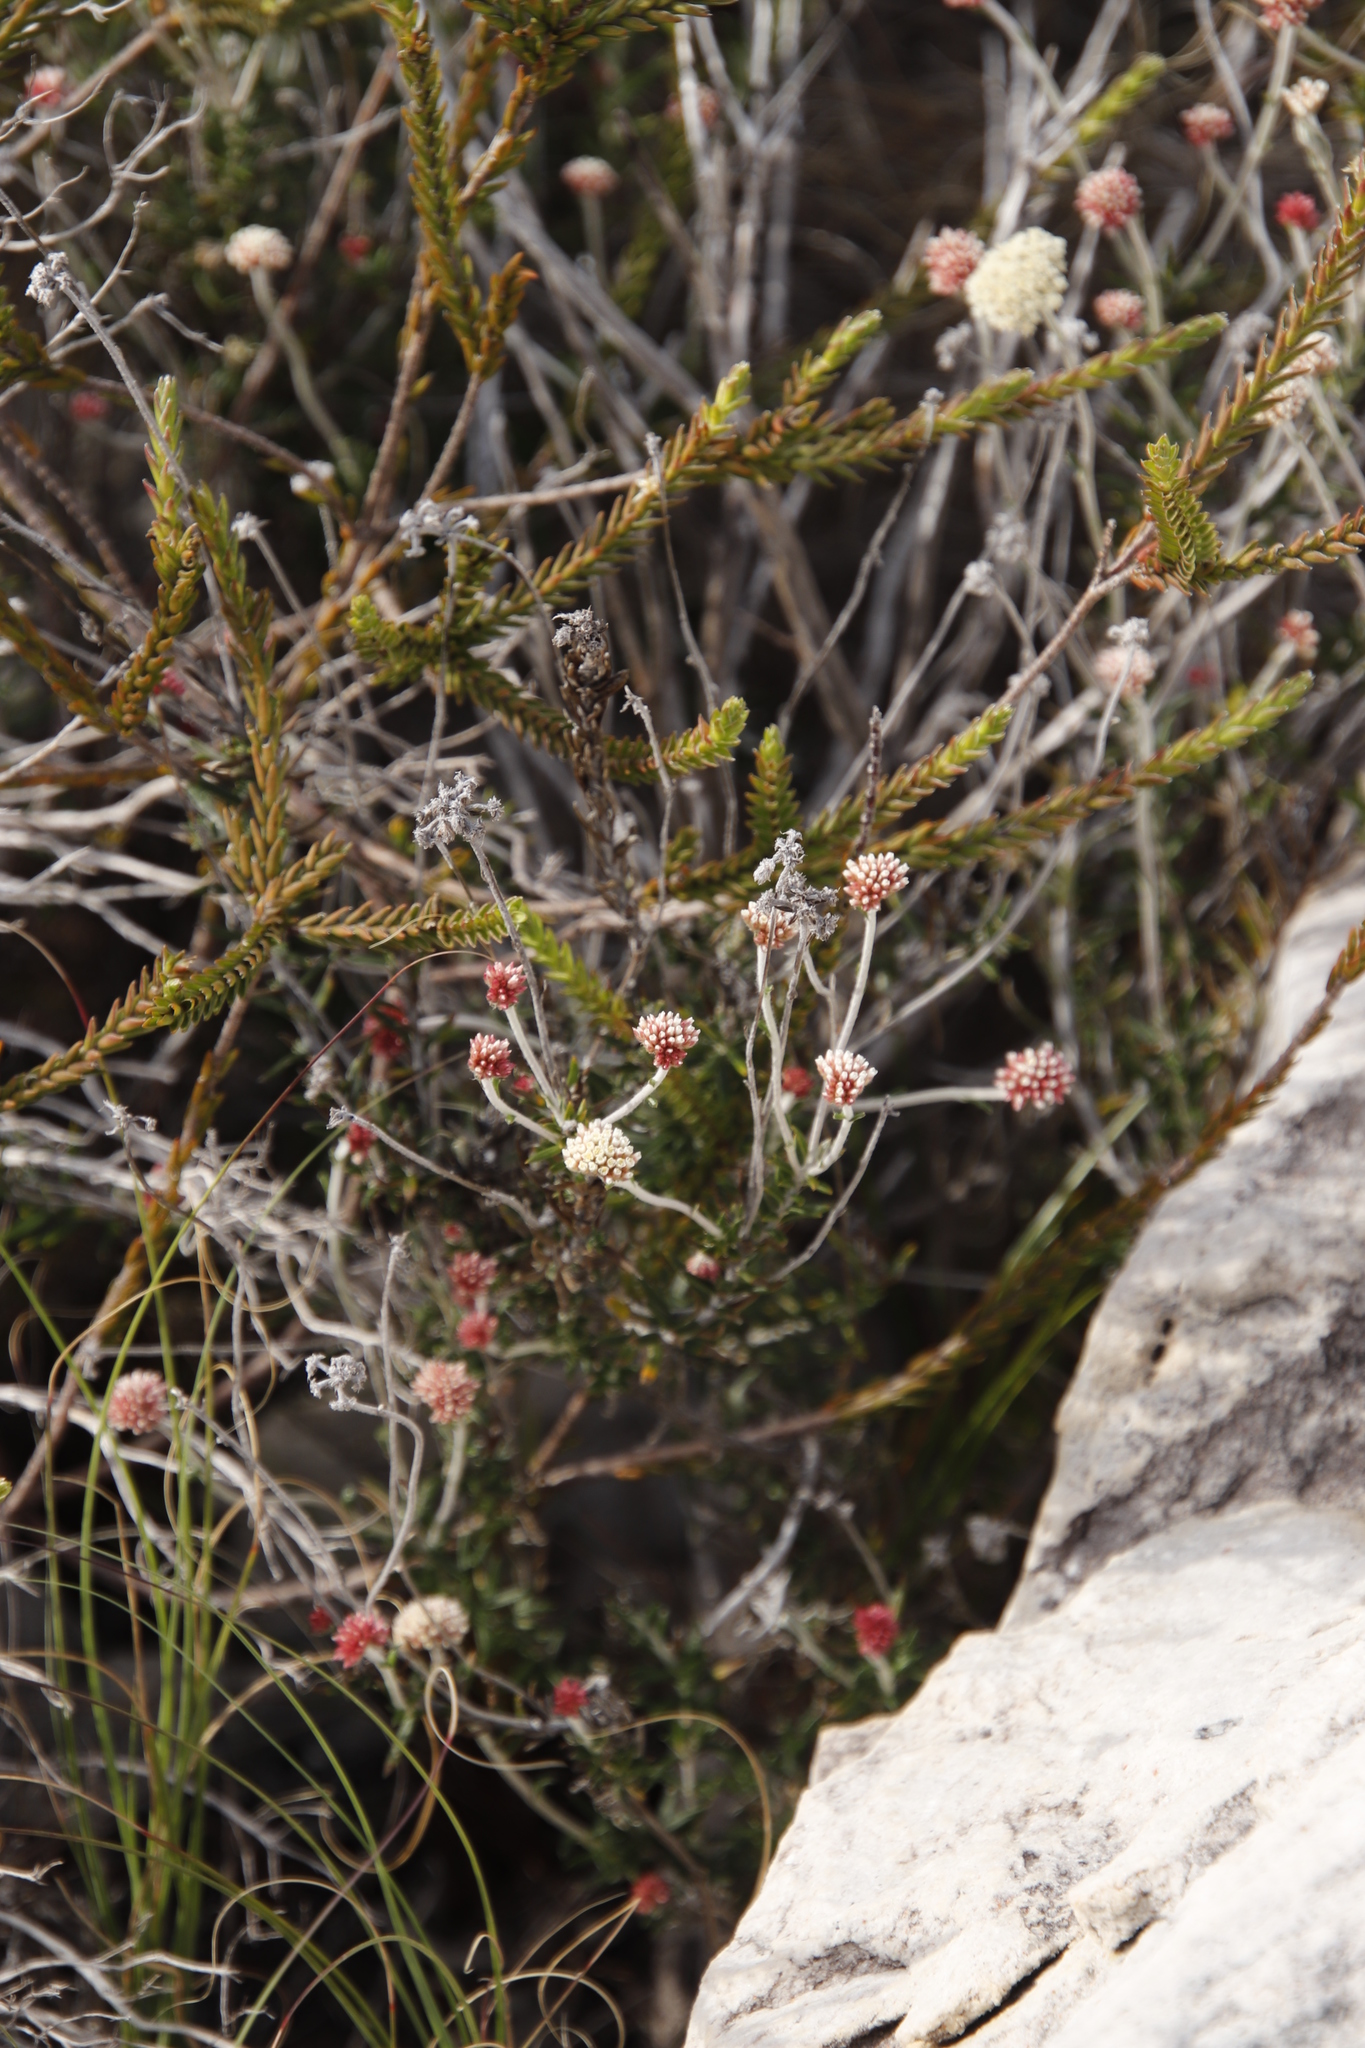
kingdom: Plantae
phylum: Tracheophyta
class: Magnoliopsida
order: Asterales
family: Asteraceae
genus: Anaxeton
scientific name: Anaxeton laeve
